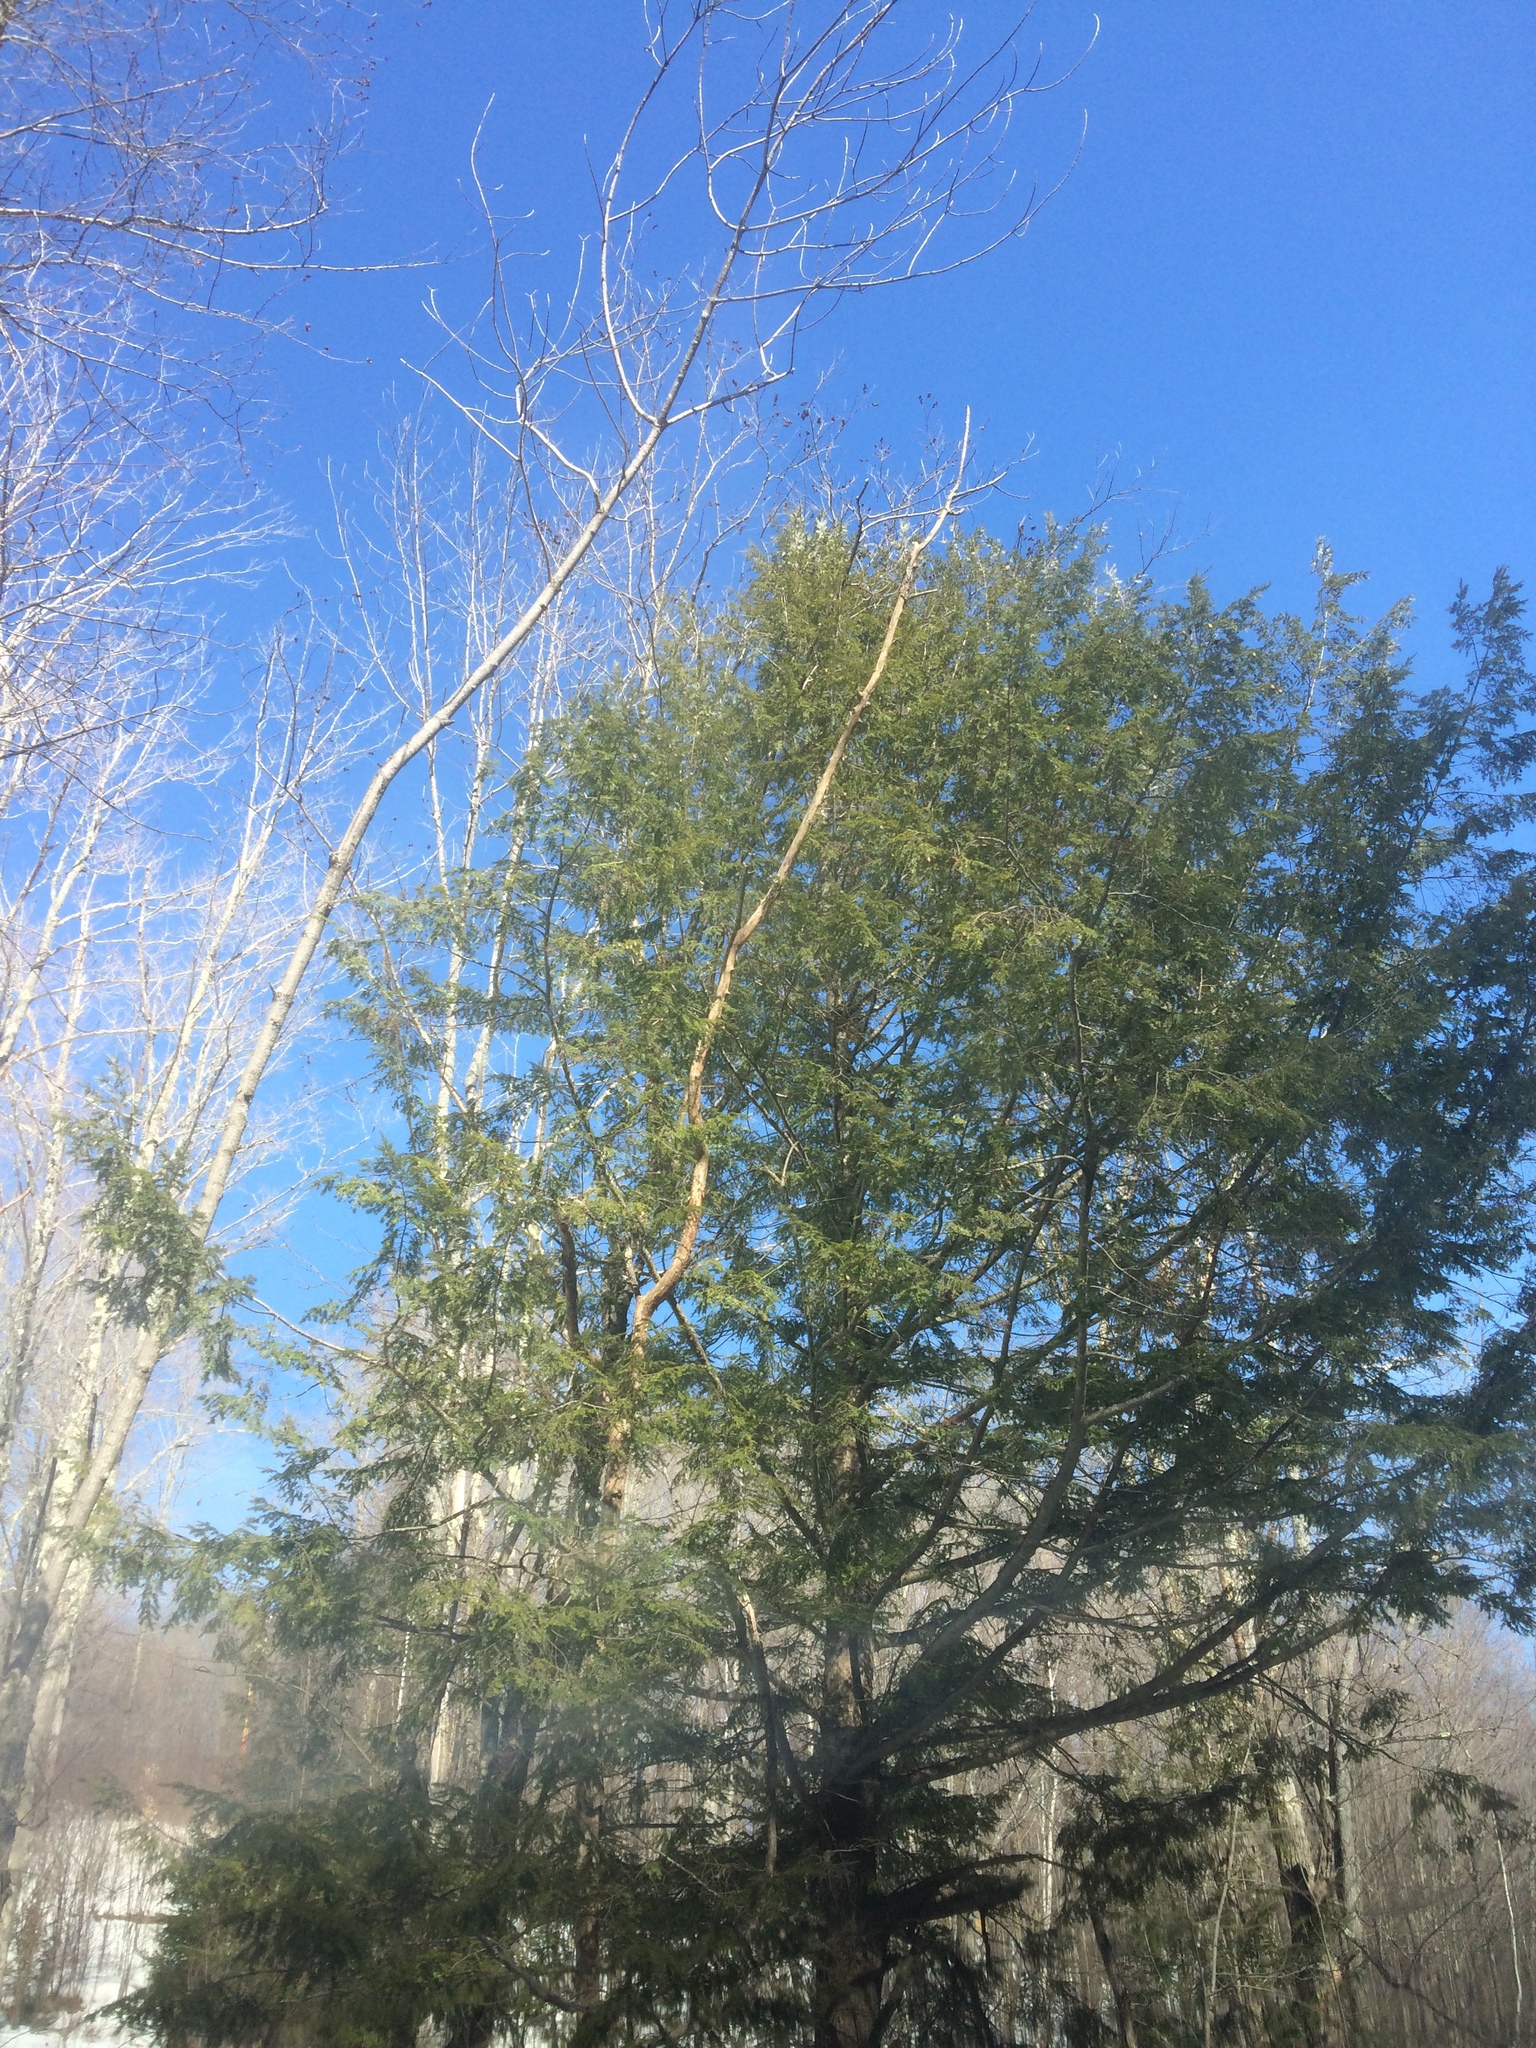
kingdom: Plantae
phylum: Tracheophyta
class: Pinopsida
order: Pinales
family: Pinaceae
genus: Tsuga
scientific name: Tsuga canadensis
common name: Eastern hemlock
